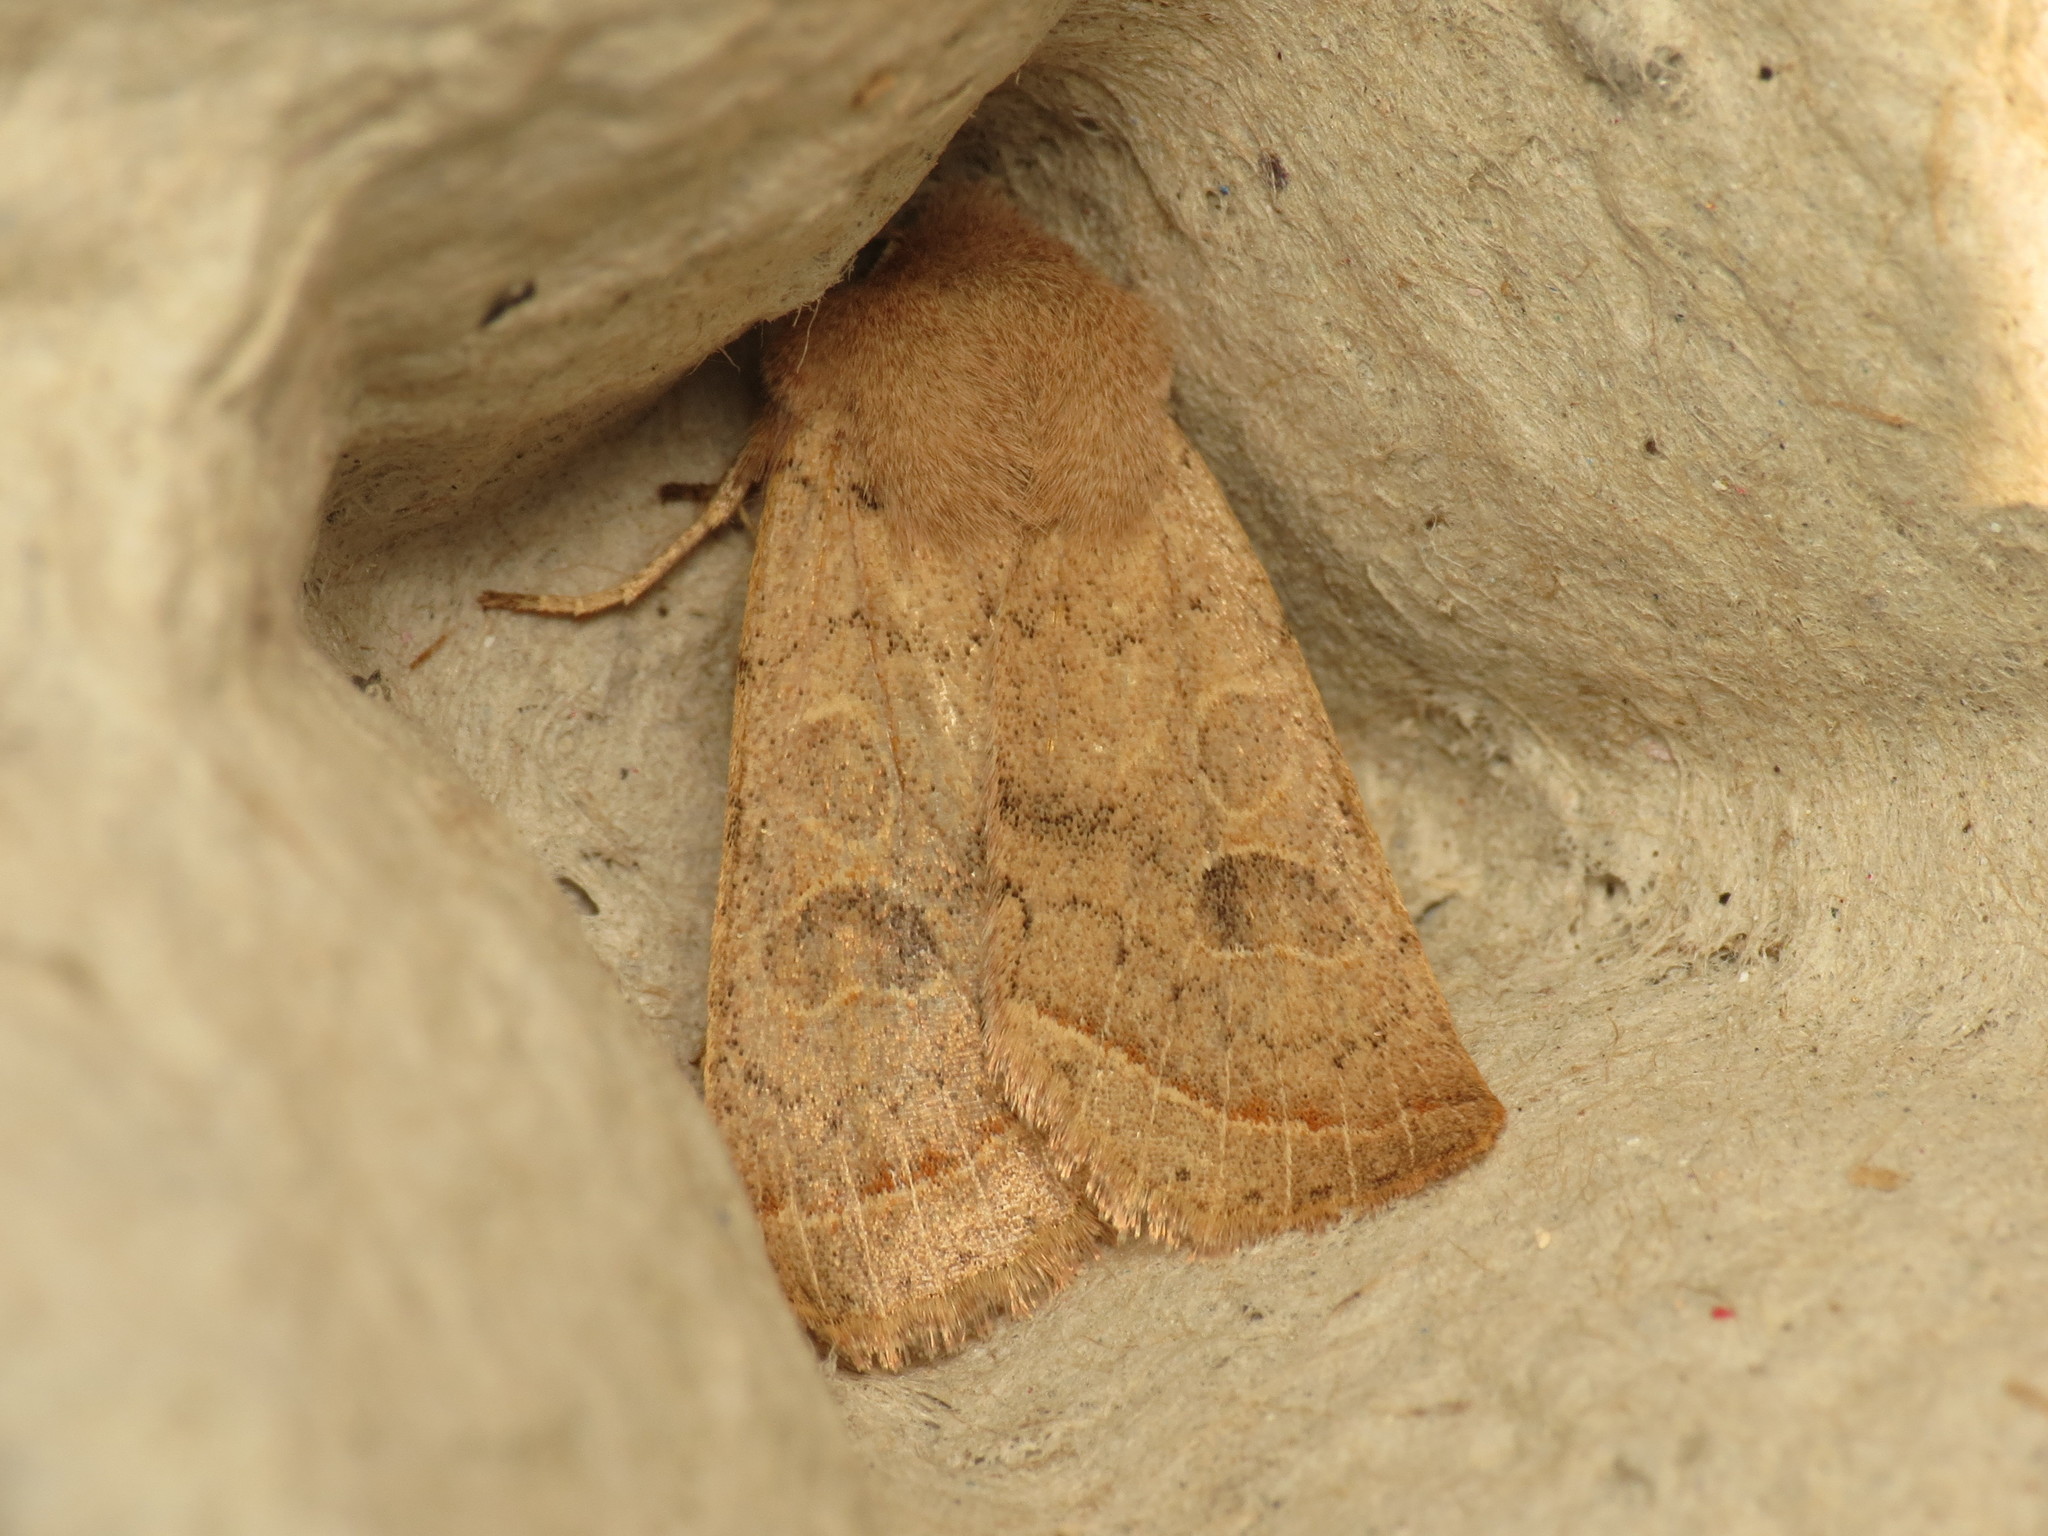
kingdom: Animalia
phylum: Arthropoda
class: Insecta
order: Lepidoptera
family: Noctuidae
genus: Orthosia
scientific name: Orthosia cerasi
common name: Common quaker
